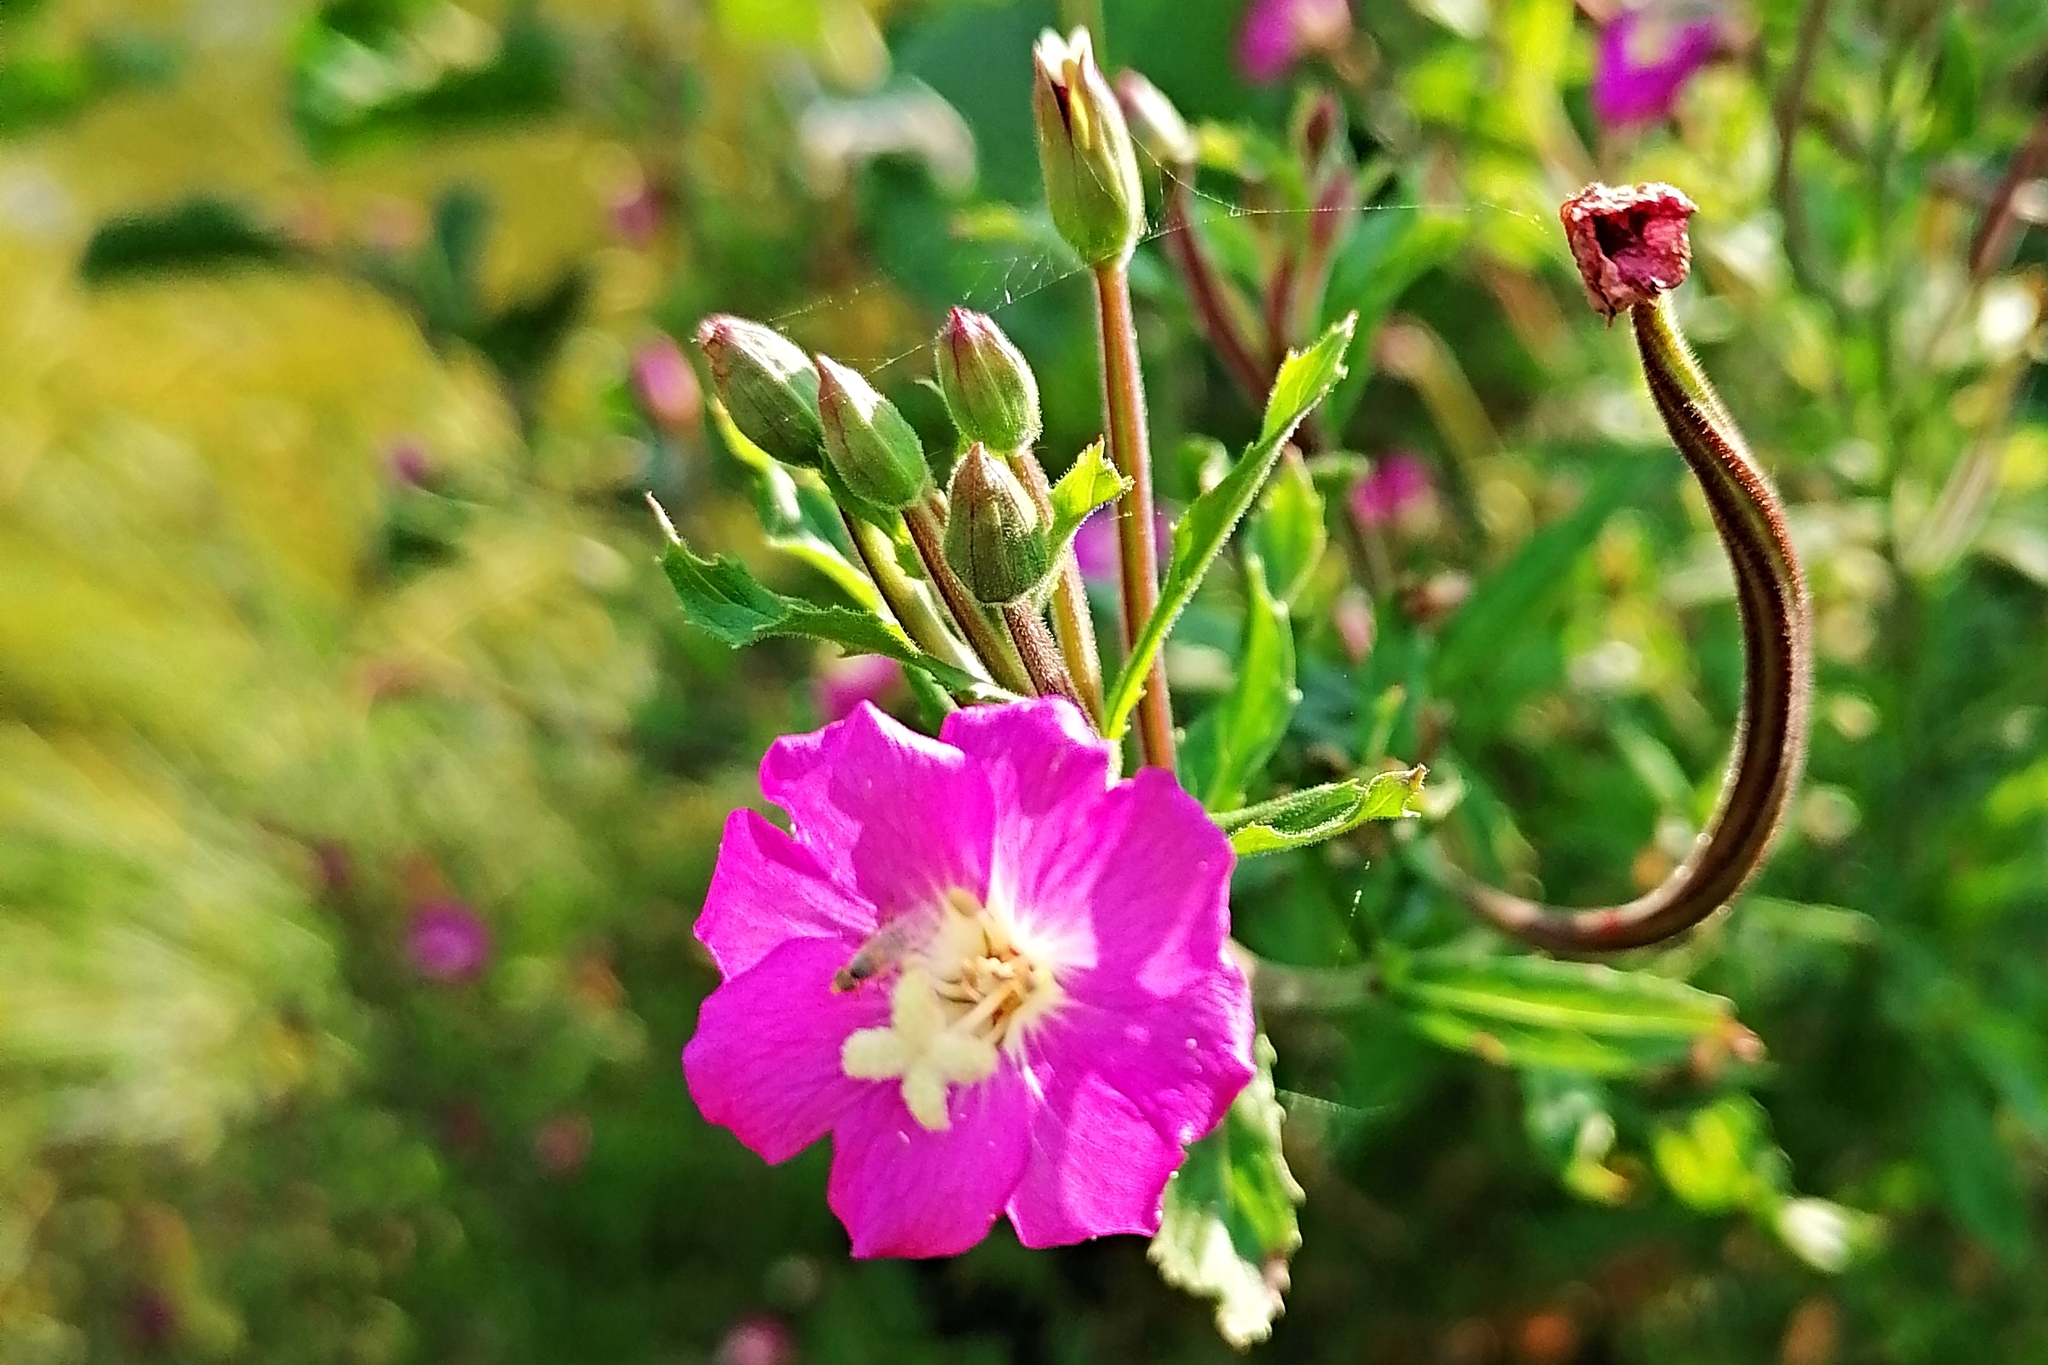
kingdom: Plantae
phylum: Tracheophyta
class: Magnoliopsida
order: Myrtales
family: Onagraceae
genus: Epilobium
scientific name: Epilobium hirsutum
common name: Great willowherb
